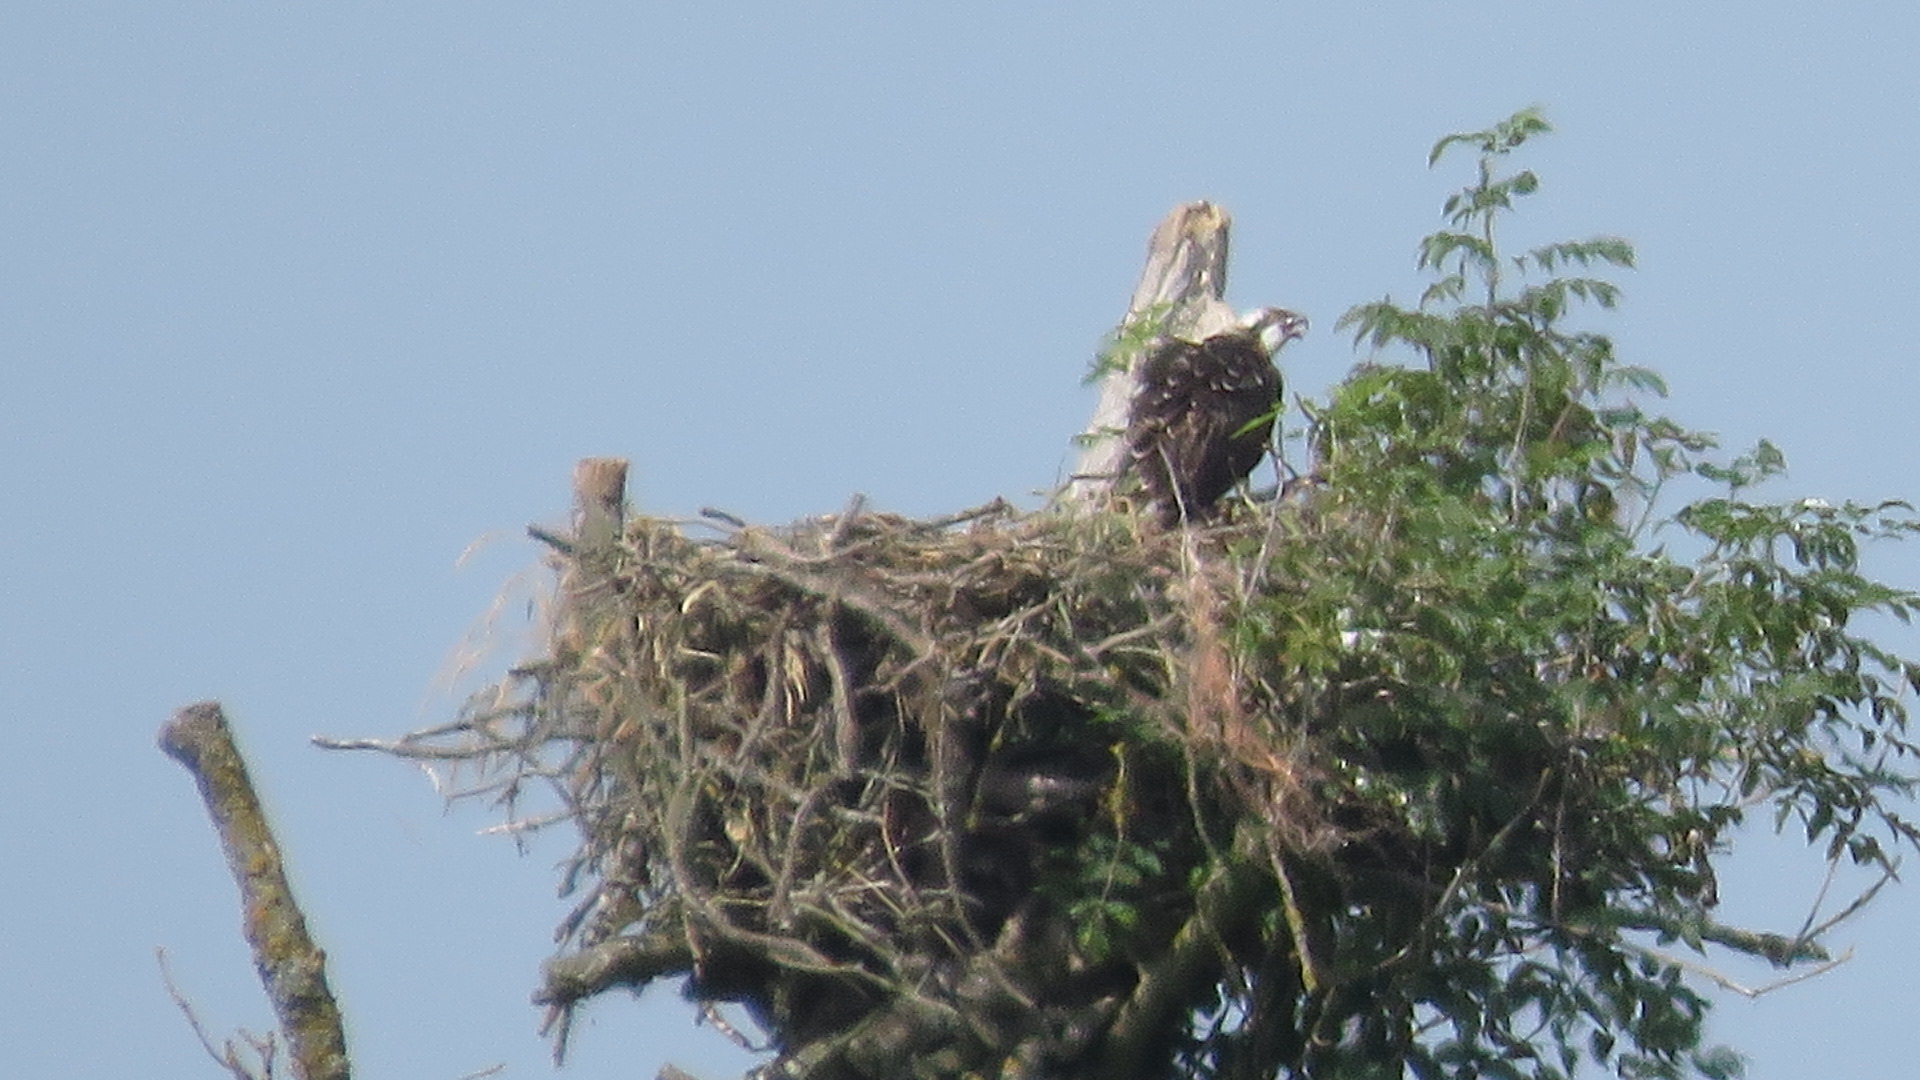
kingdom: Animalia
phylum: Chordata
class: Aves
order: Accipitriformes
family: Pandionidae
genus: Pandion
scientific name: Pandion haliaetus
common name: Osprey
